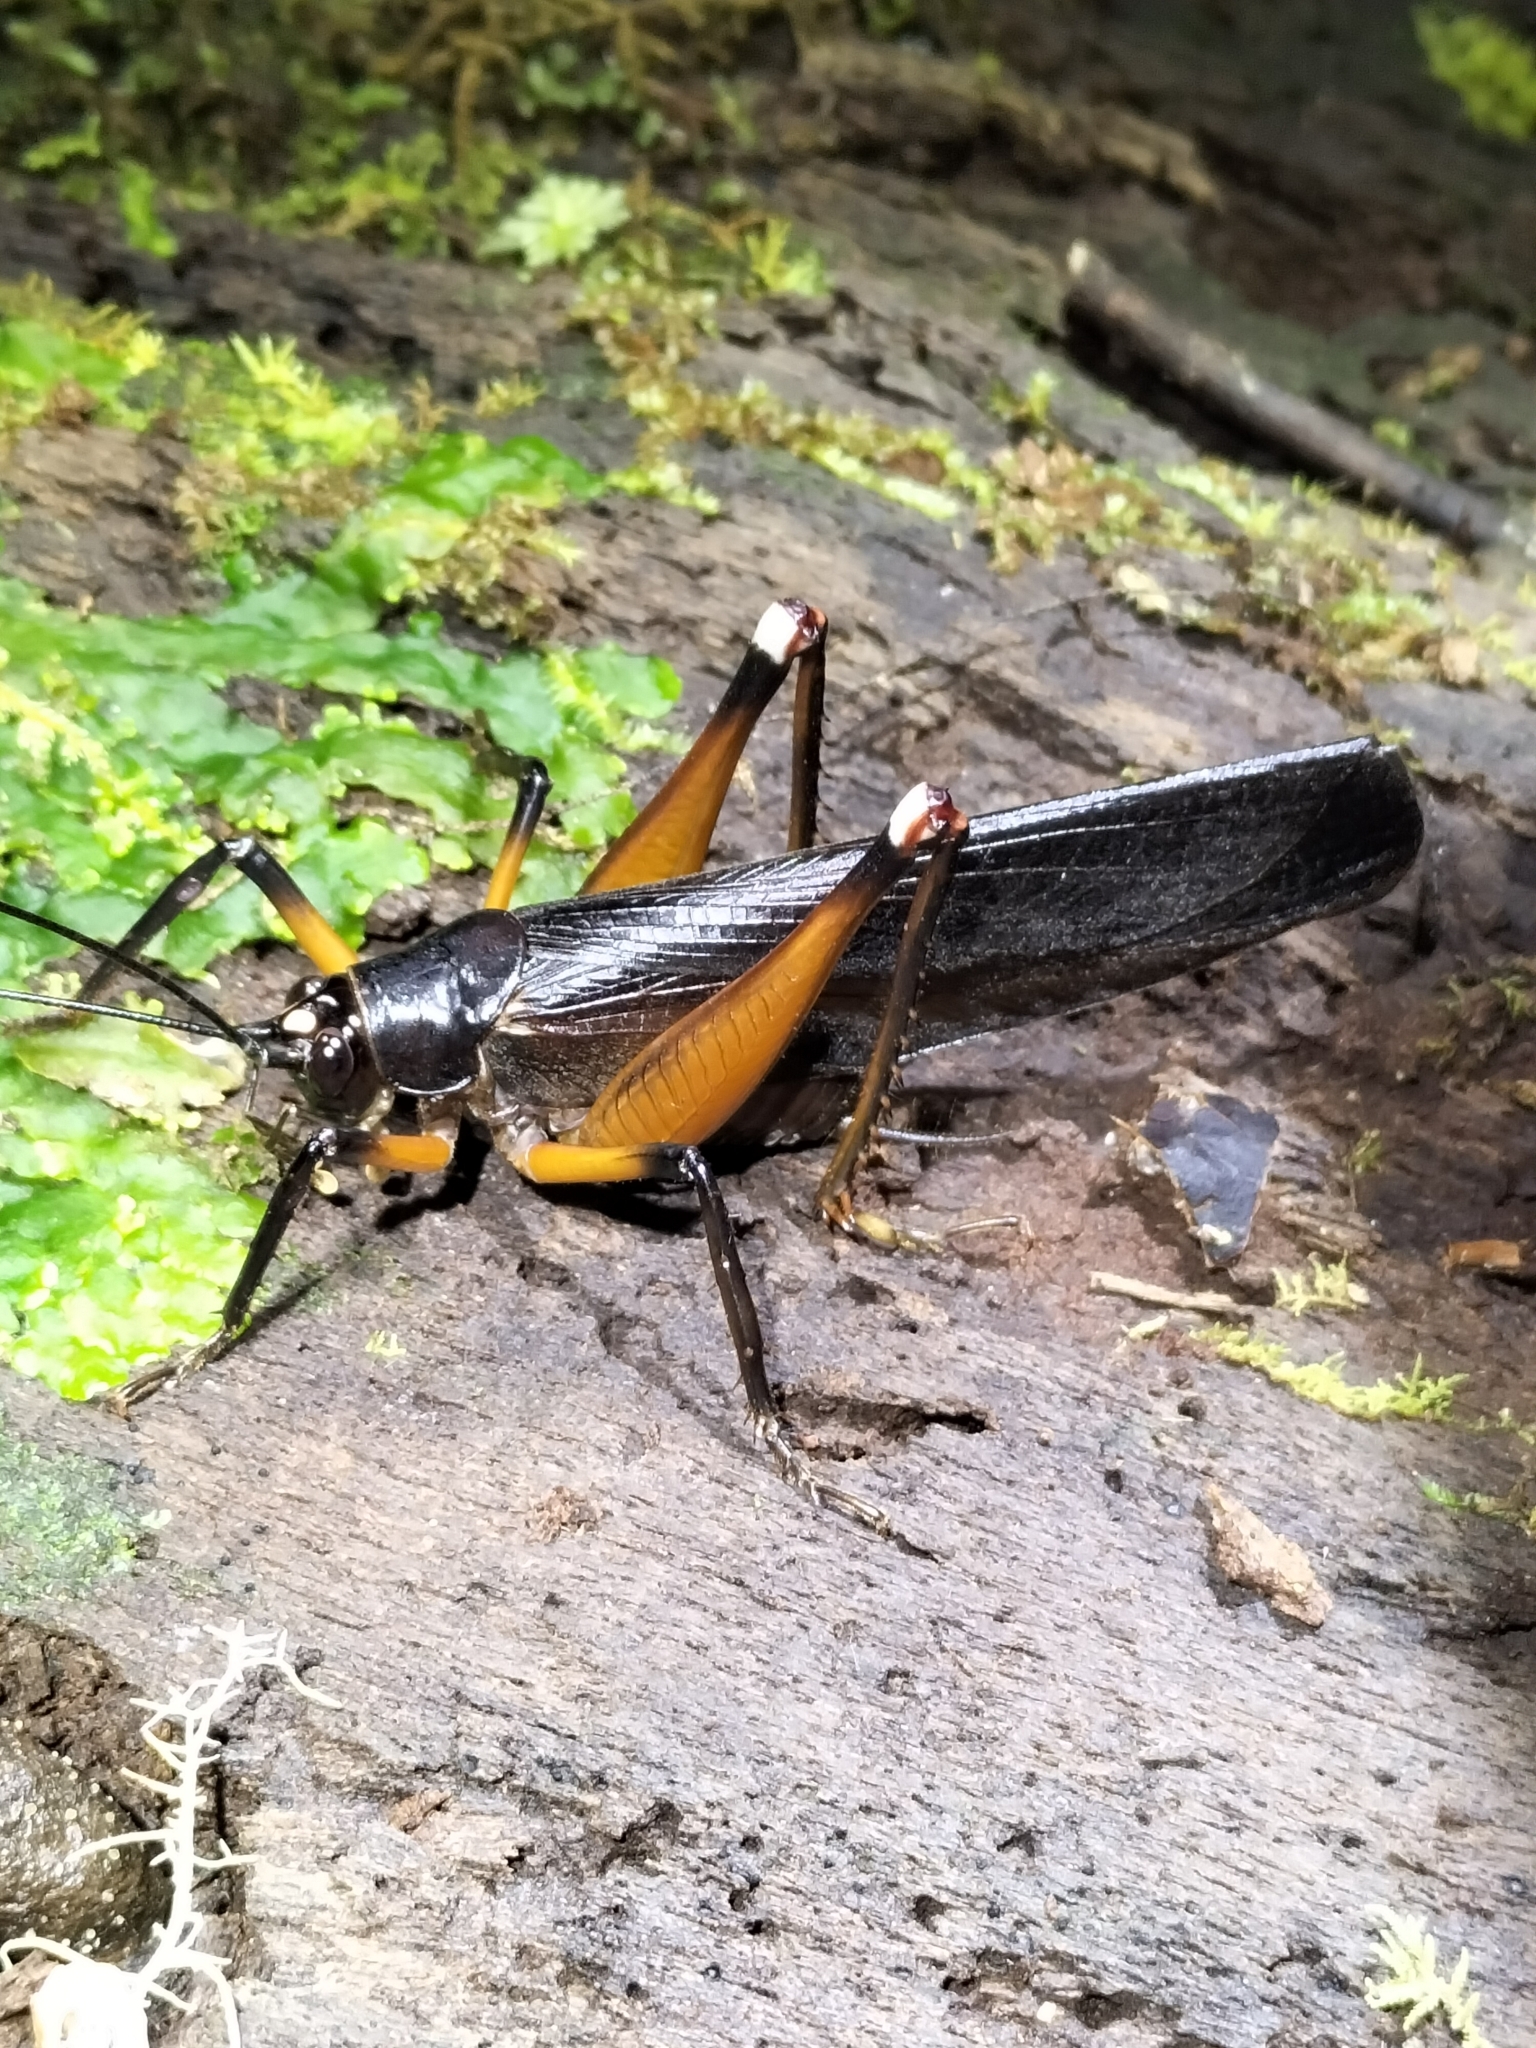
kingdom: Animalia
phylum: Arthropoda
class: Insecta
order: Orthoptera
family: Anostostomatidae
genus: Exogryllacris
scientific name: Exogryllacris ornata
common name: Broad-winged forest cricket
